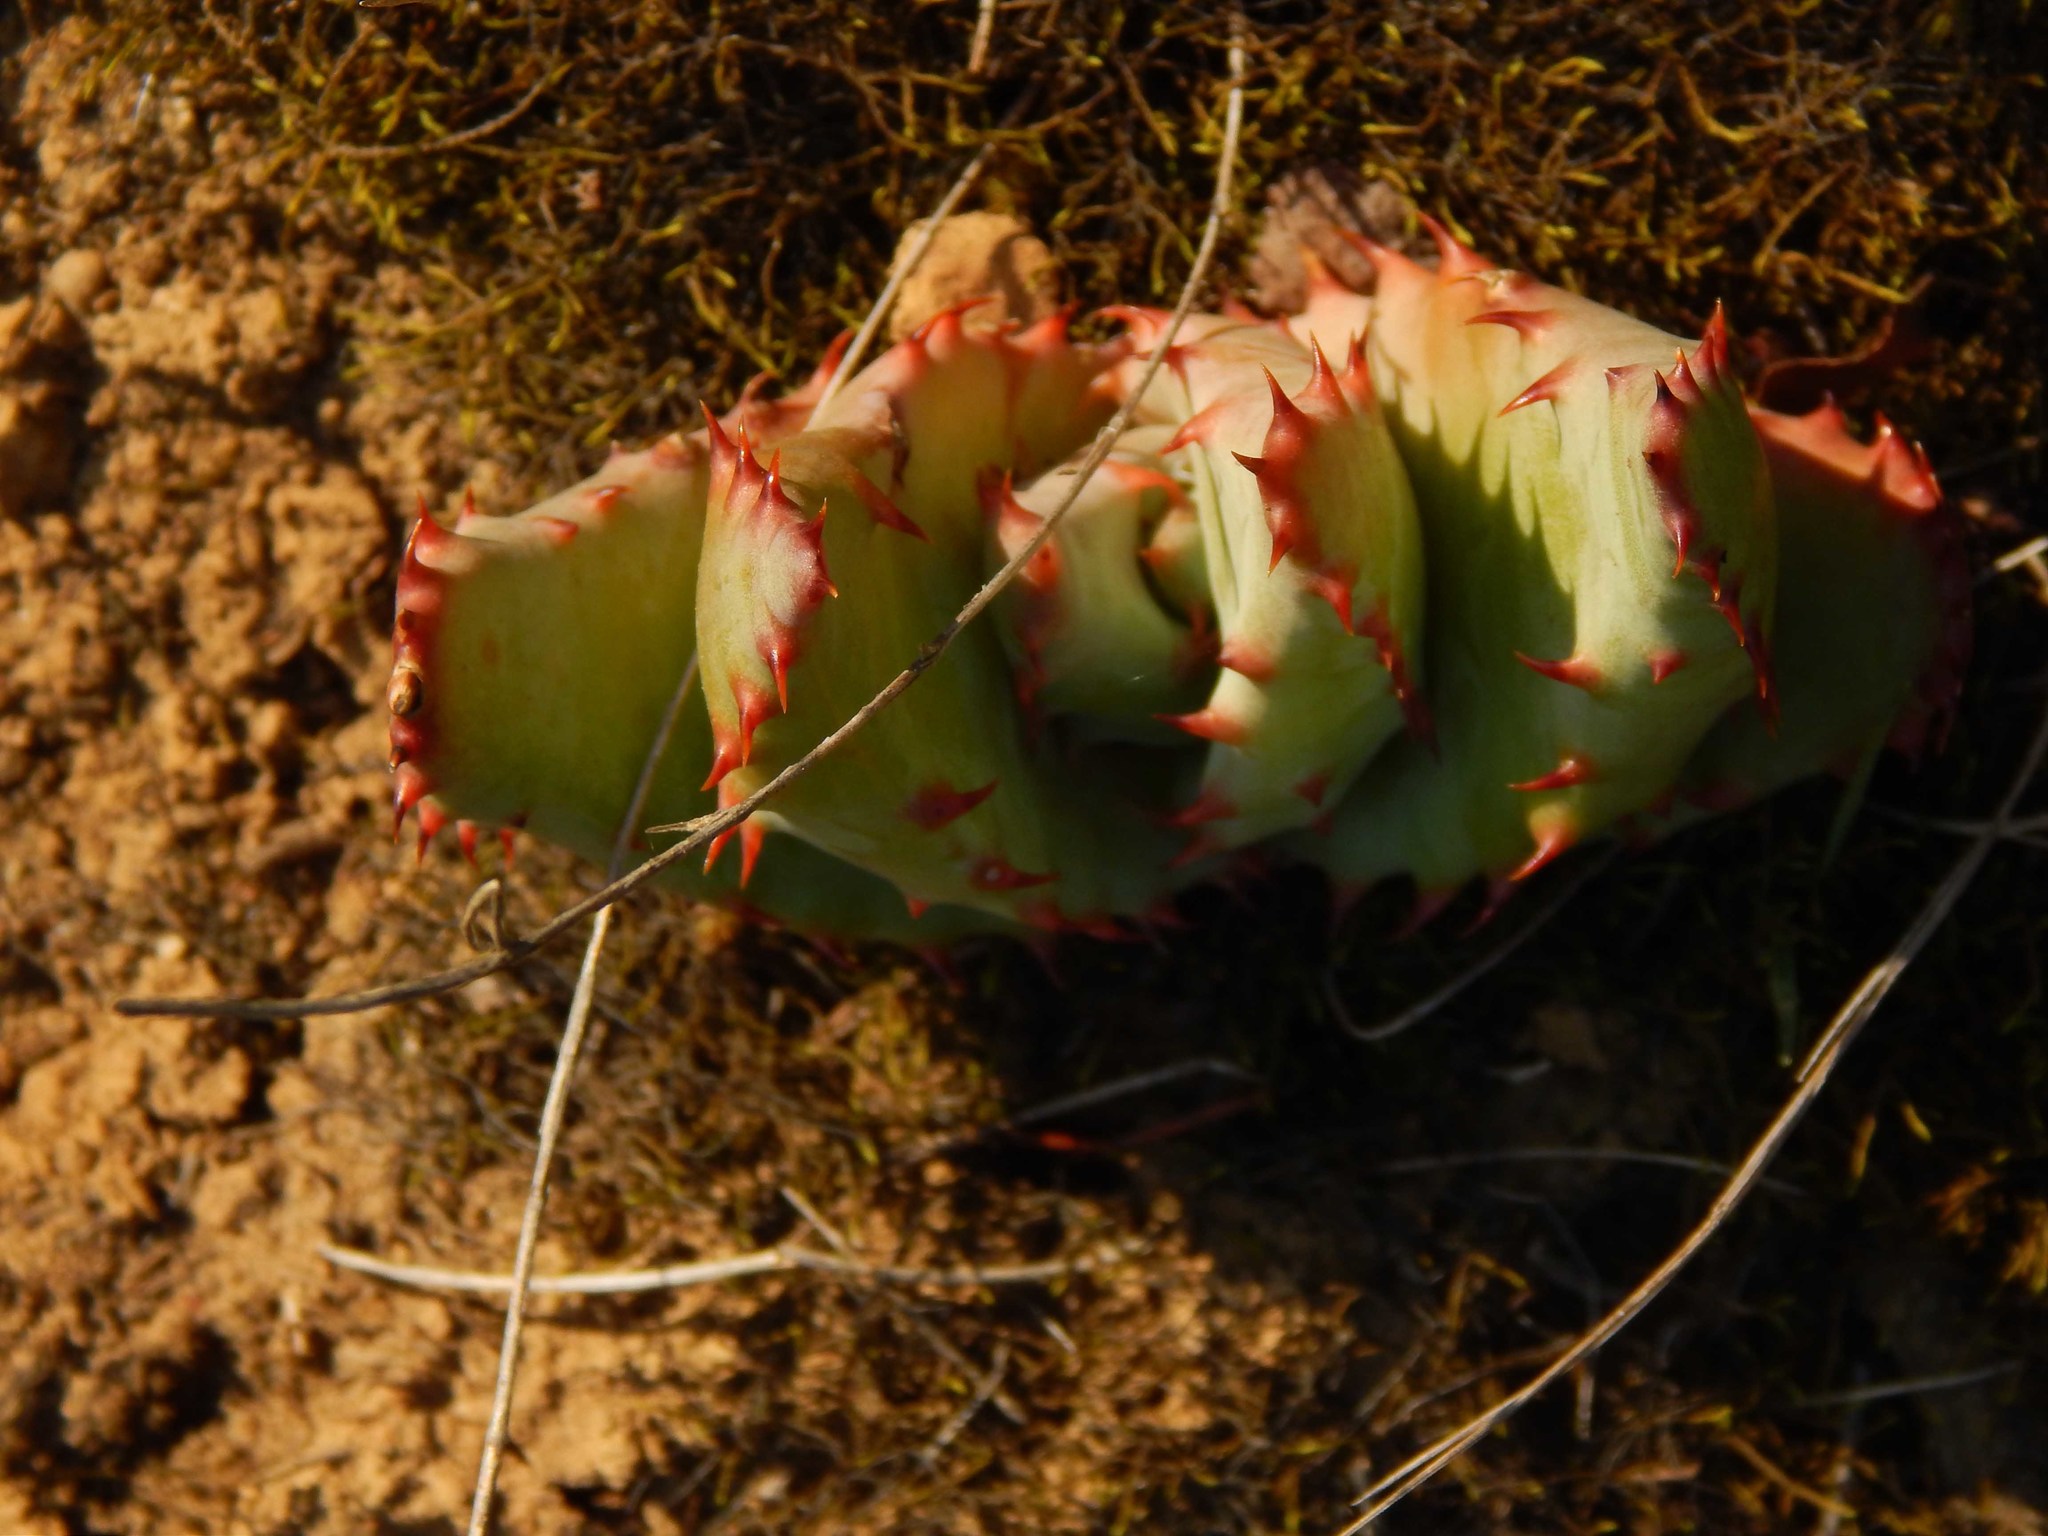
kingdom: Plantae
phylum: Tracheophyta
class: Liliopsida
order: Asparagales
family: Asphodelaceae
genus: Aloe
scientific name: Aloe ferox
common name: Bitter aloe
